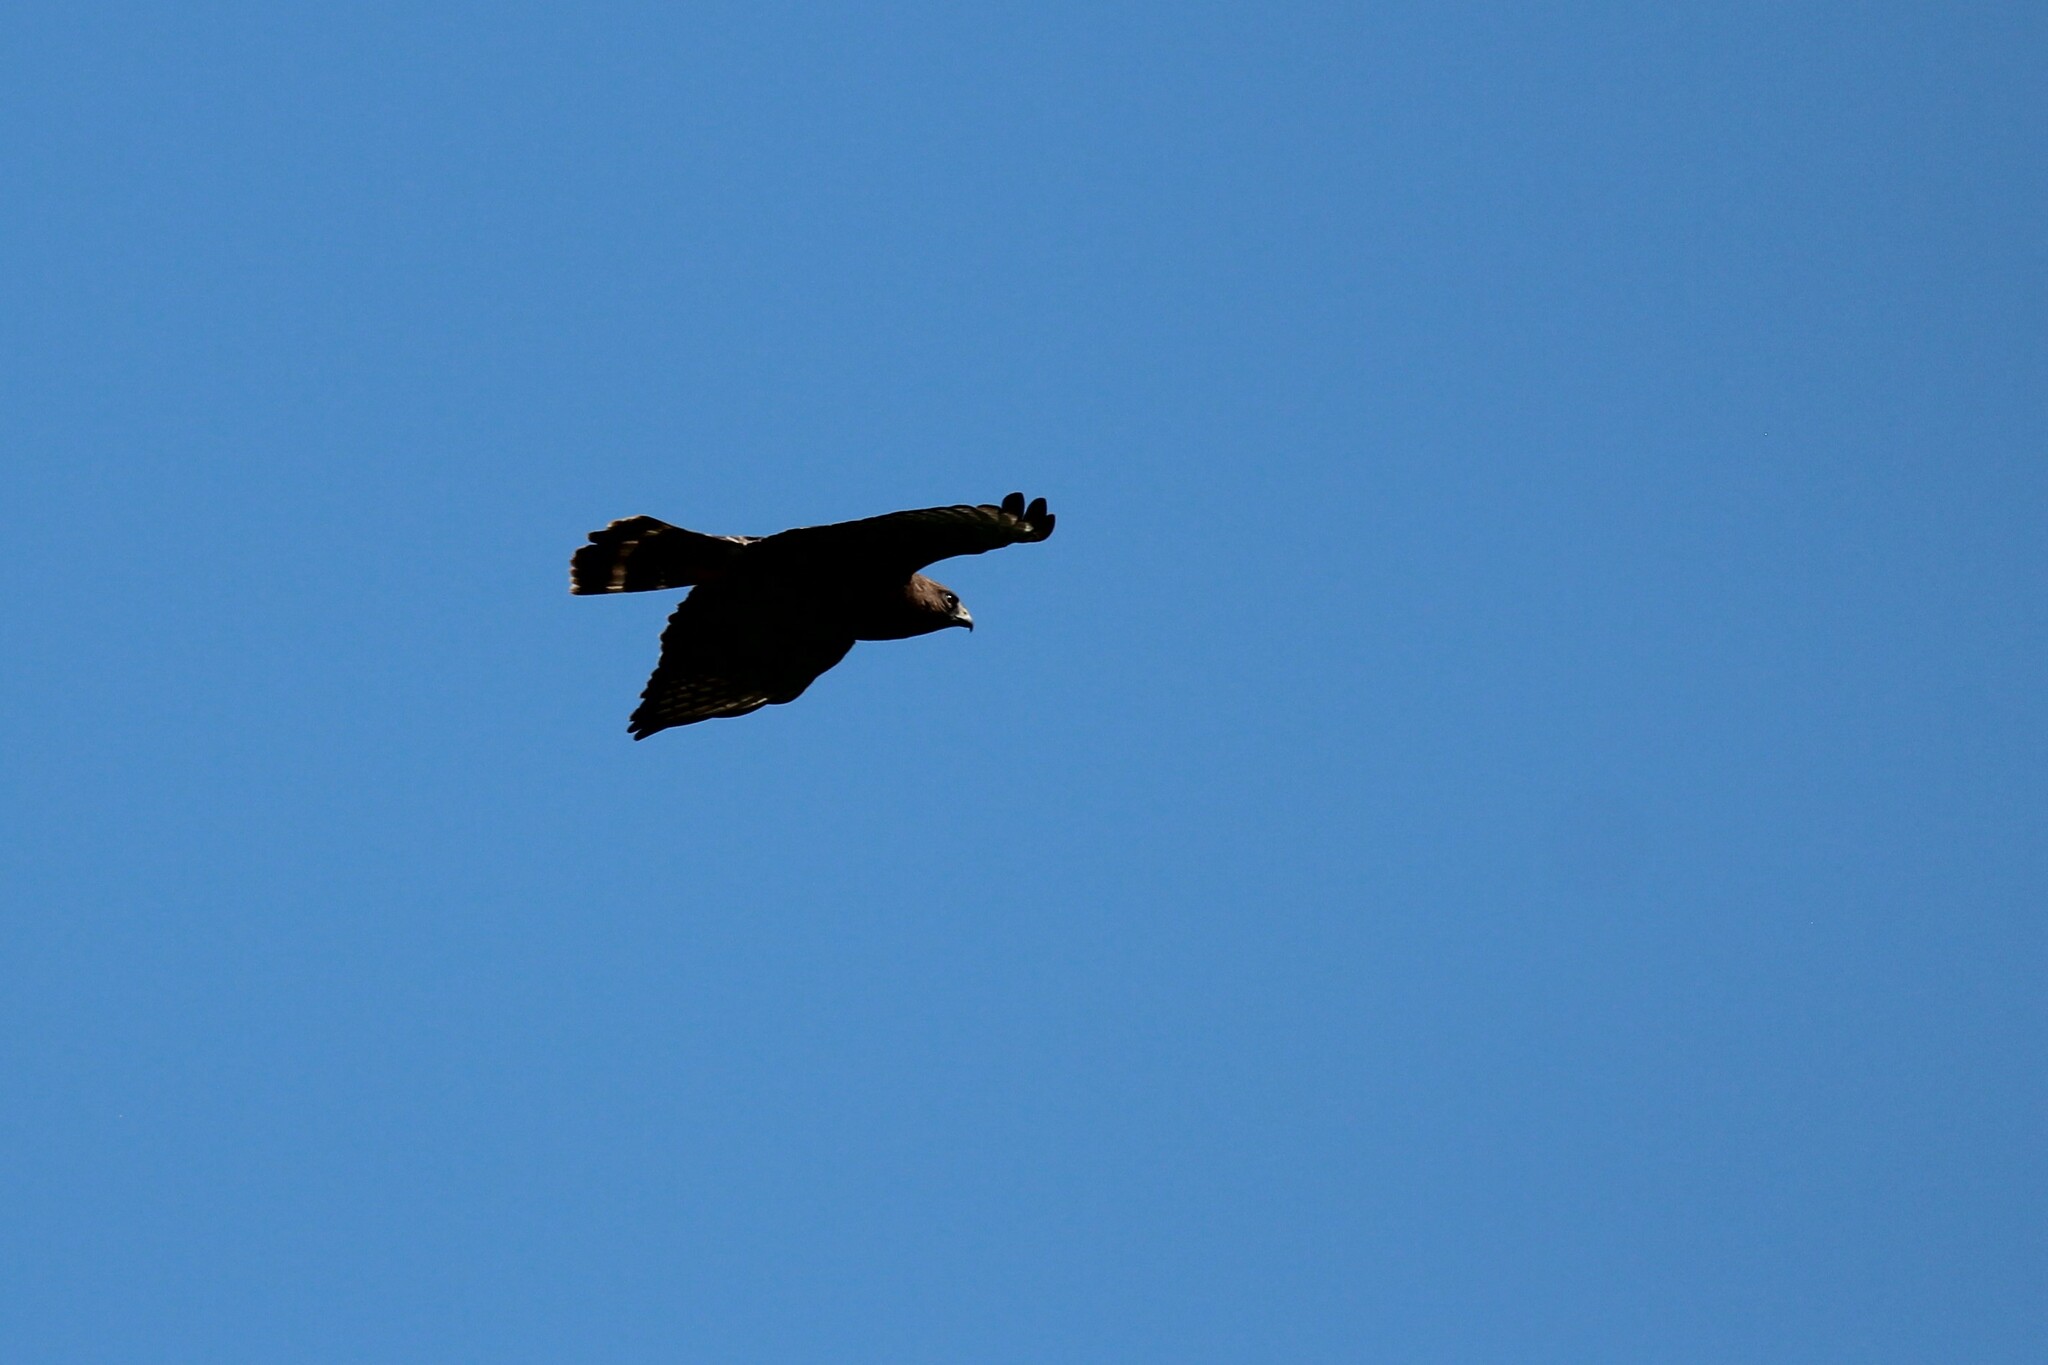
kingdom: Animalia
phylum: Chordata
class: Aves
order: Accipitriformes
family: Accipitridae
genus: Buteo
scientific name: Buteo platypterus
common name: Broad-winged hawk
